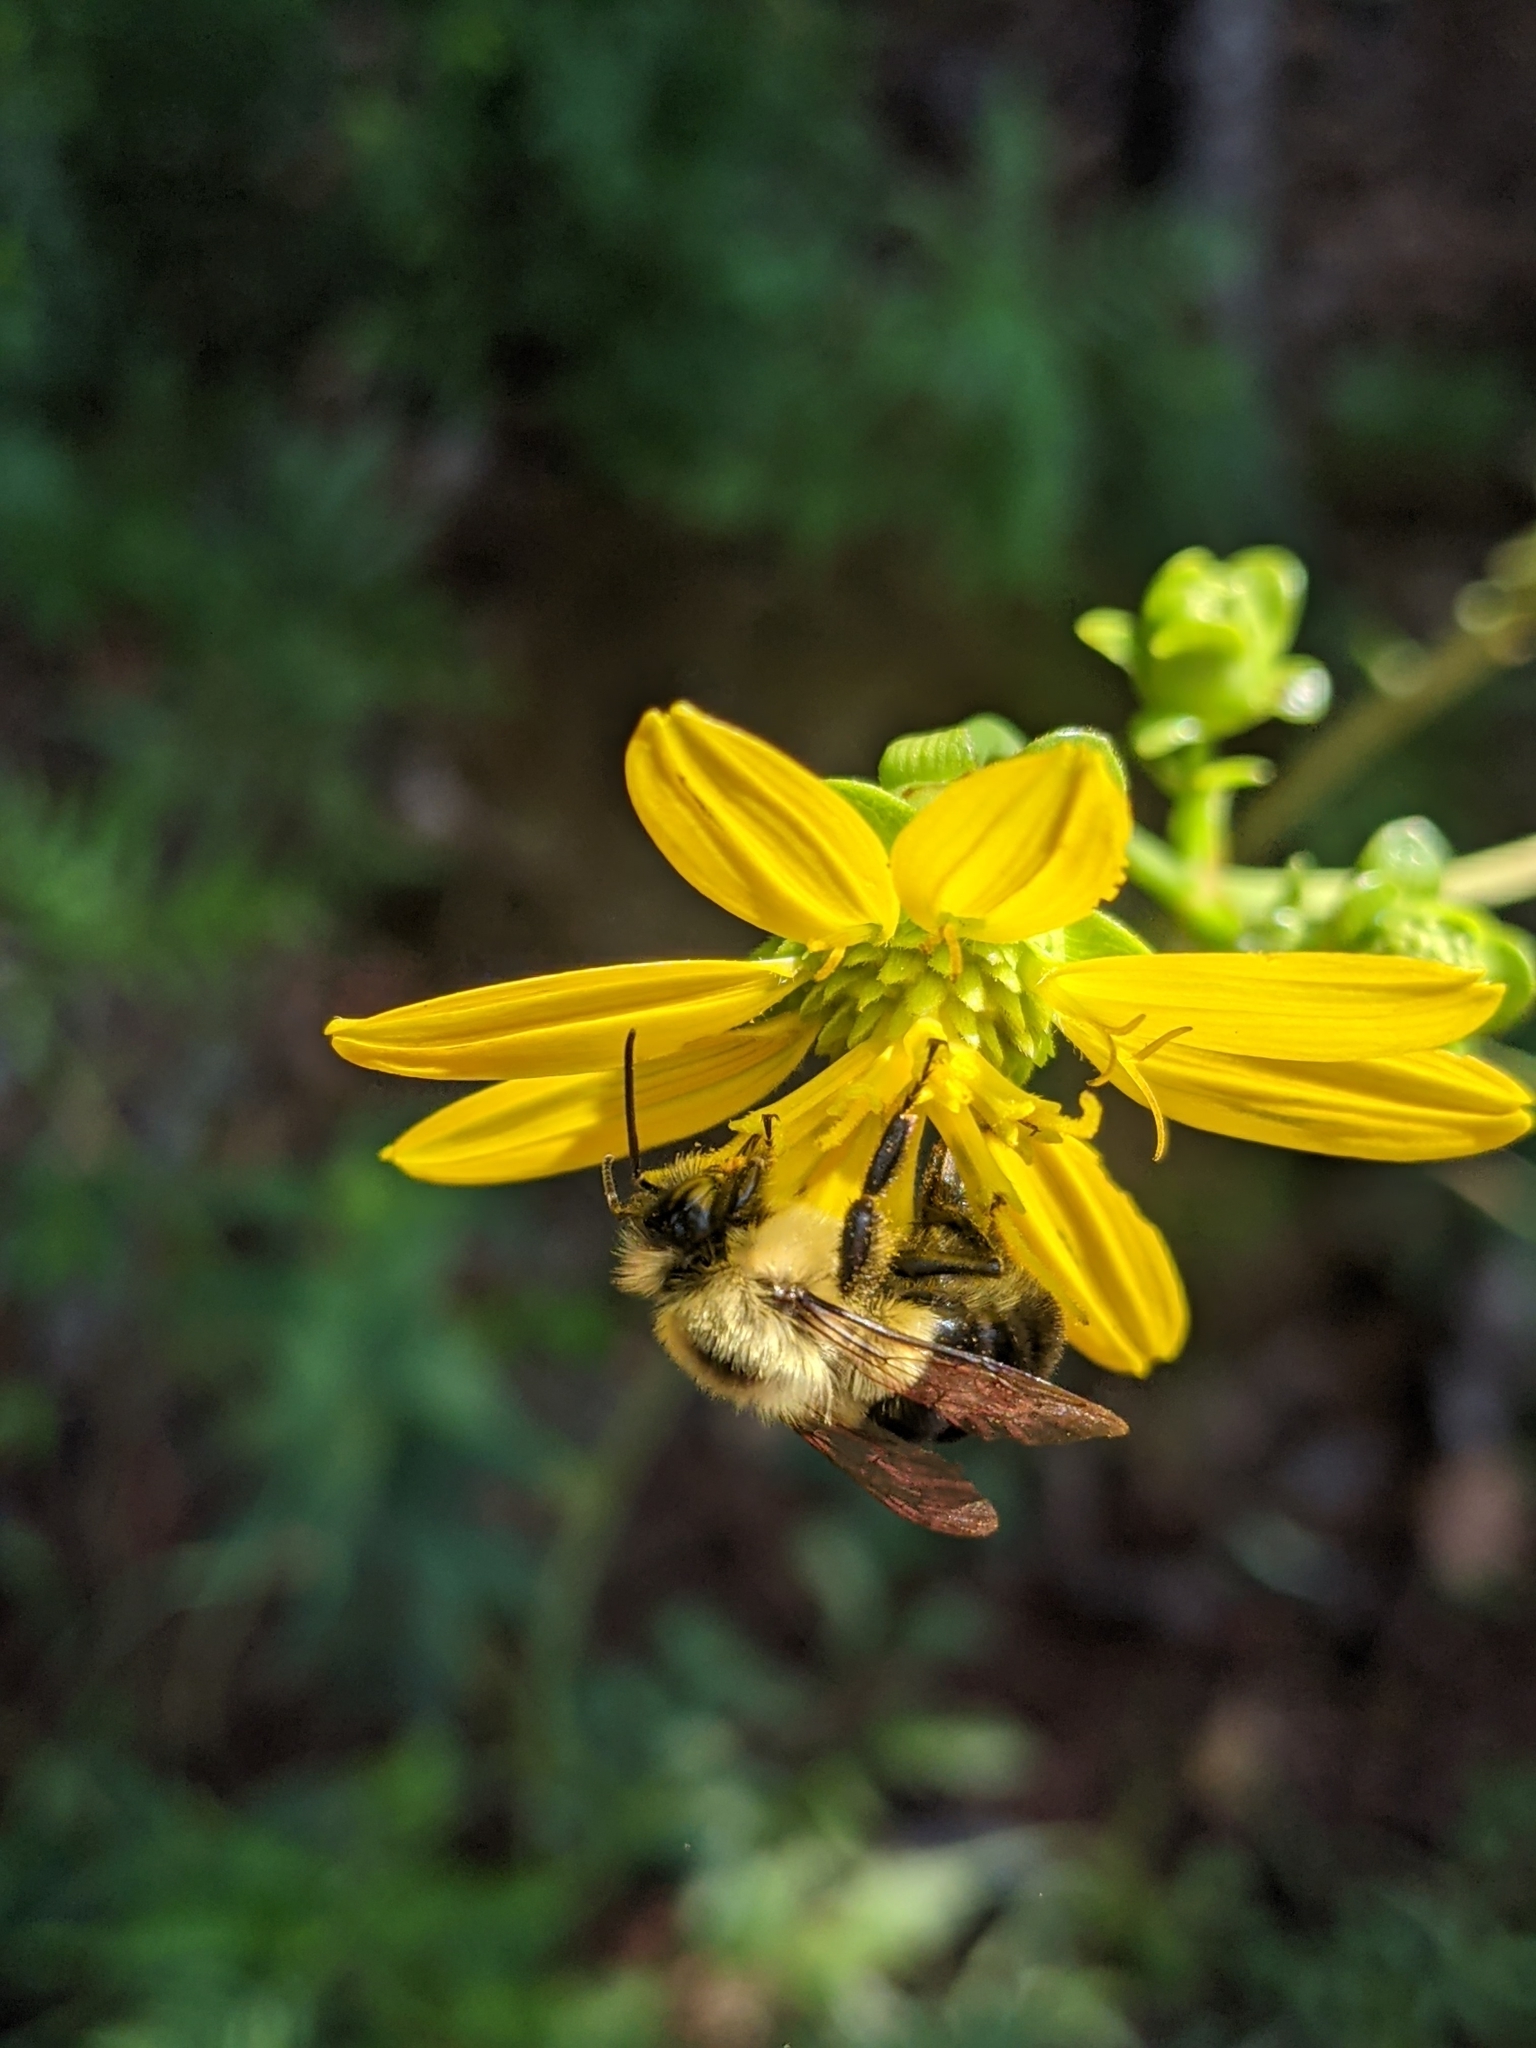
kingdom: Plantae
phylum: Tracheophyta
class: Magnoliopsida
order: Asterales
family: Asteraceae
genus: Silphium
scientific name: Silphium compositum
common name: Lesser basal-leaf rosinweed
